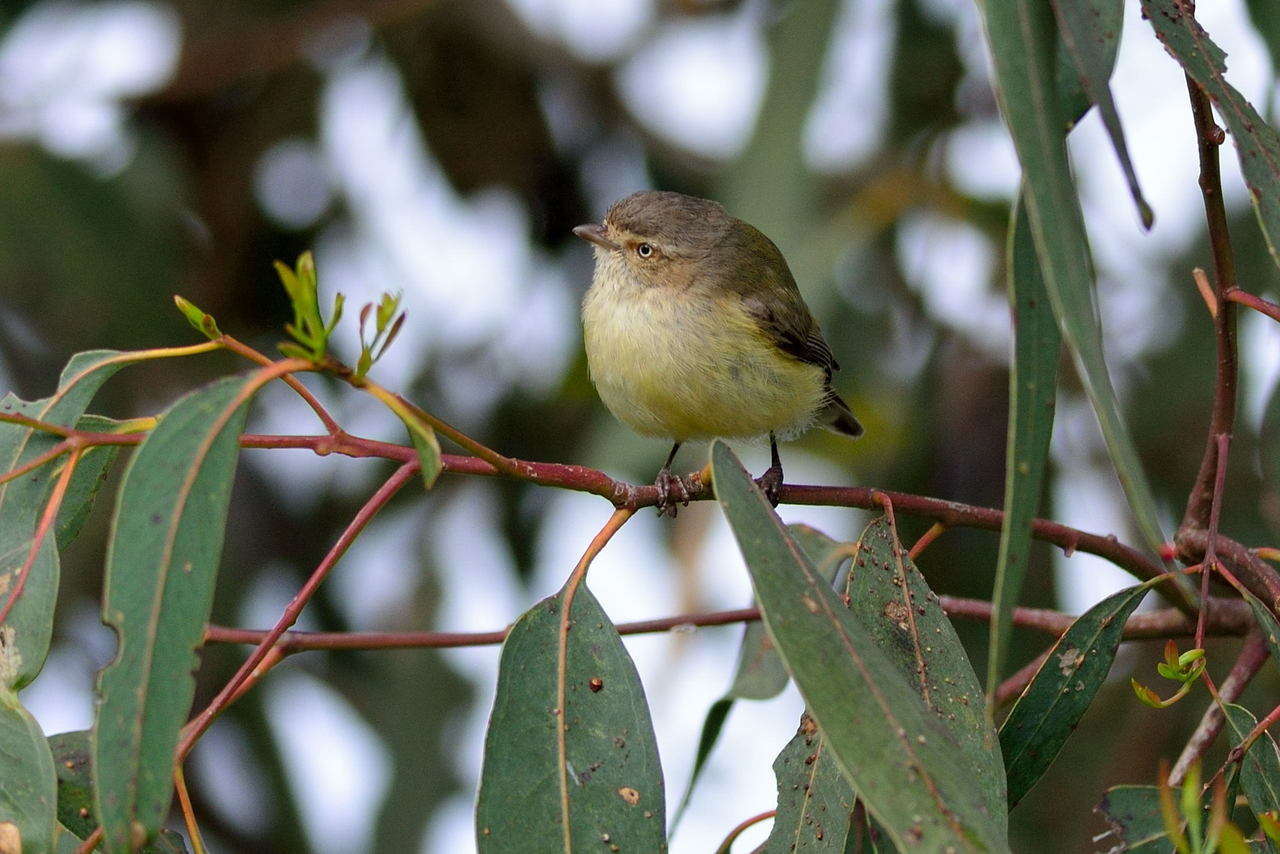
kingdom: Animalia
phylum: Chordata
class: Aves
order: Passeriformes
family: Acanthizidae
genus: Smicrornis
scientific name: Smicrornis brevirostris
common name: Weebill
